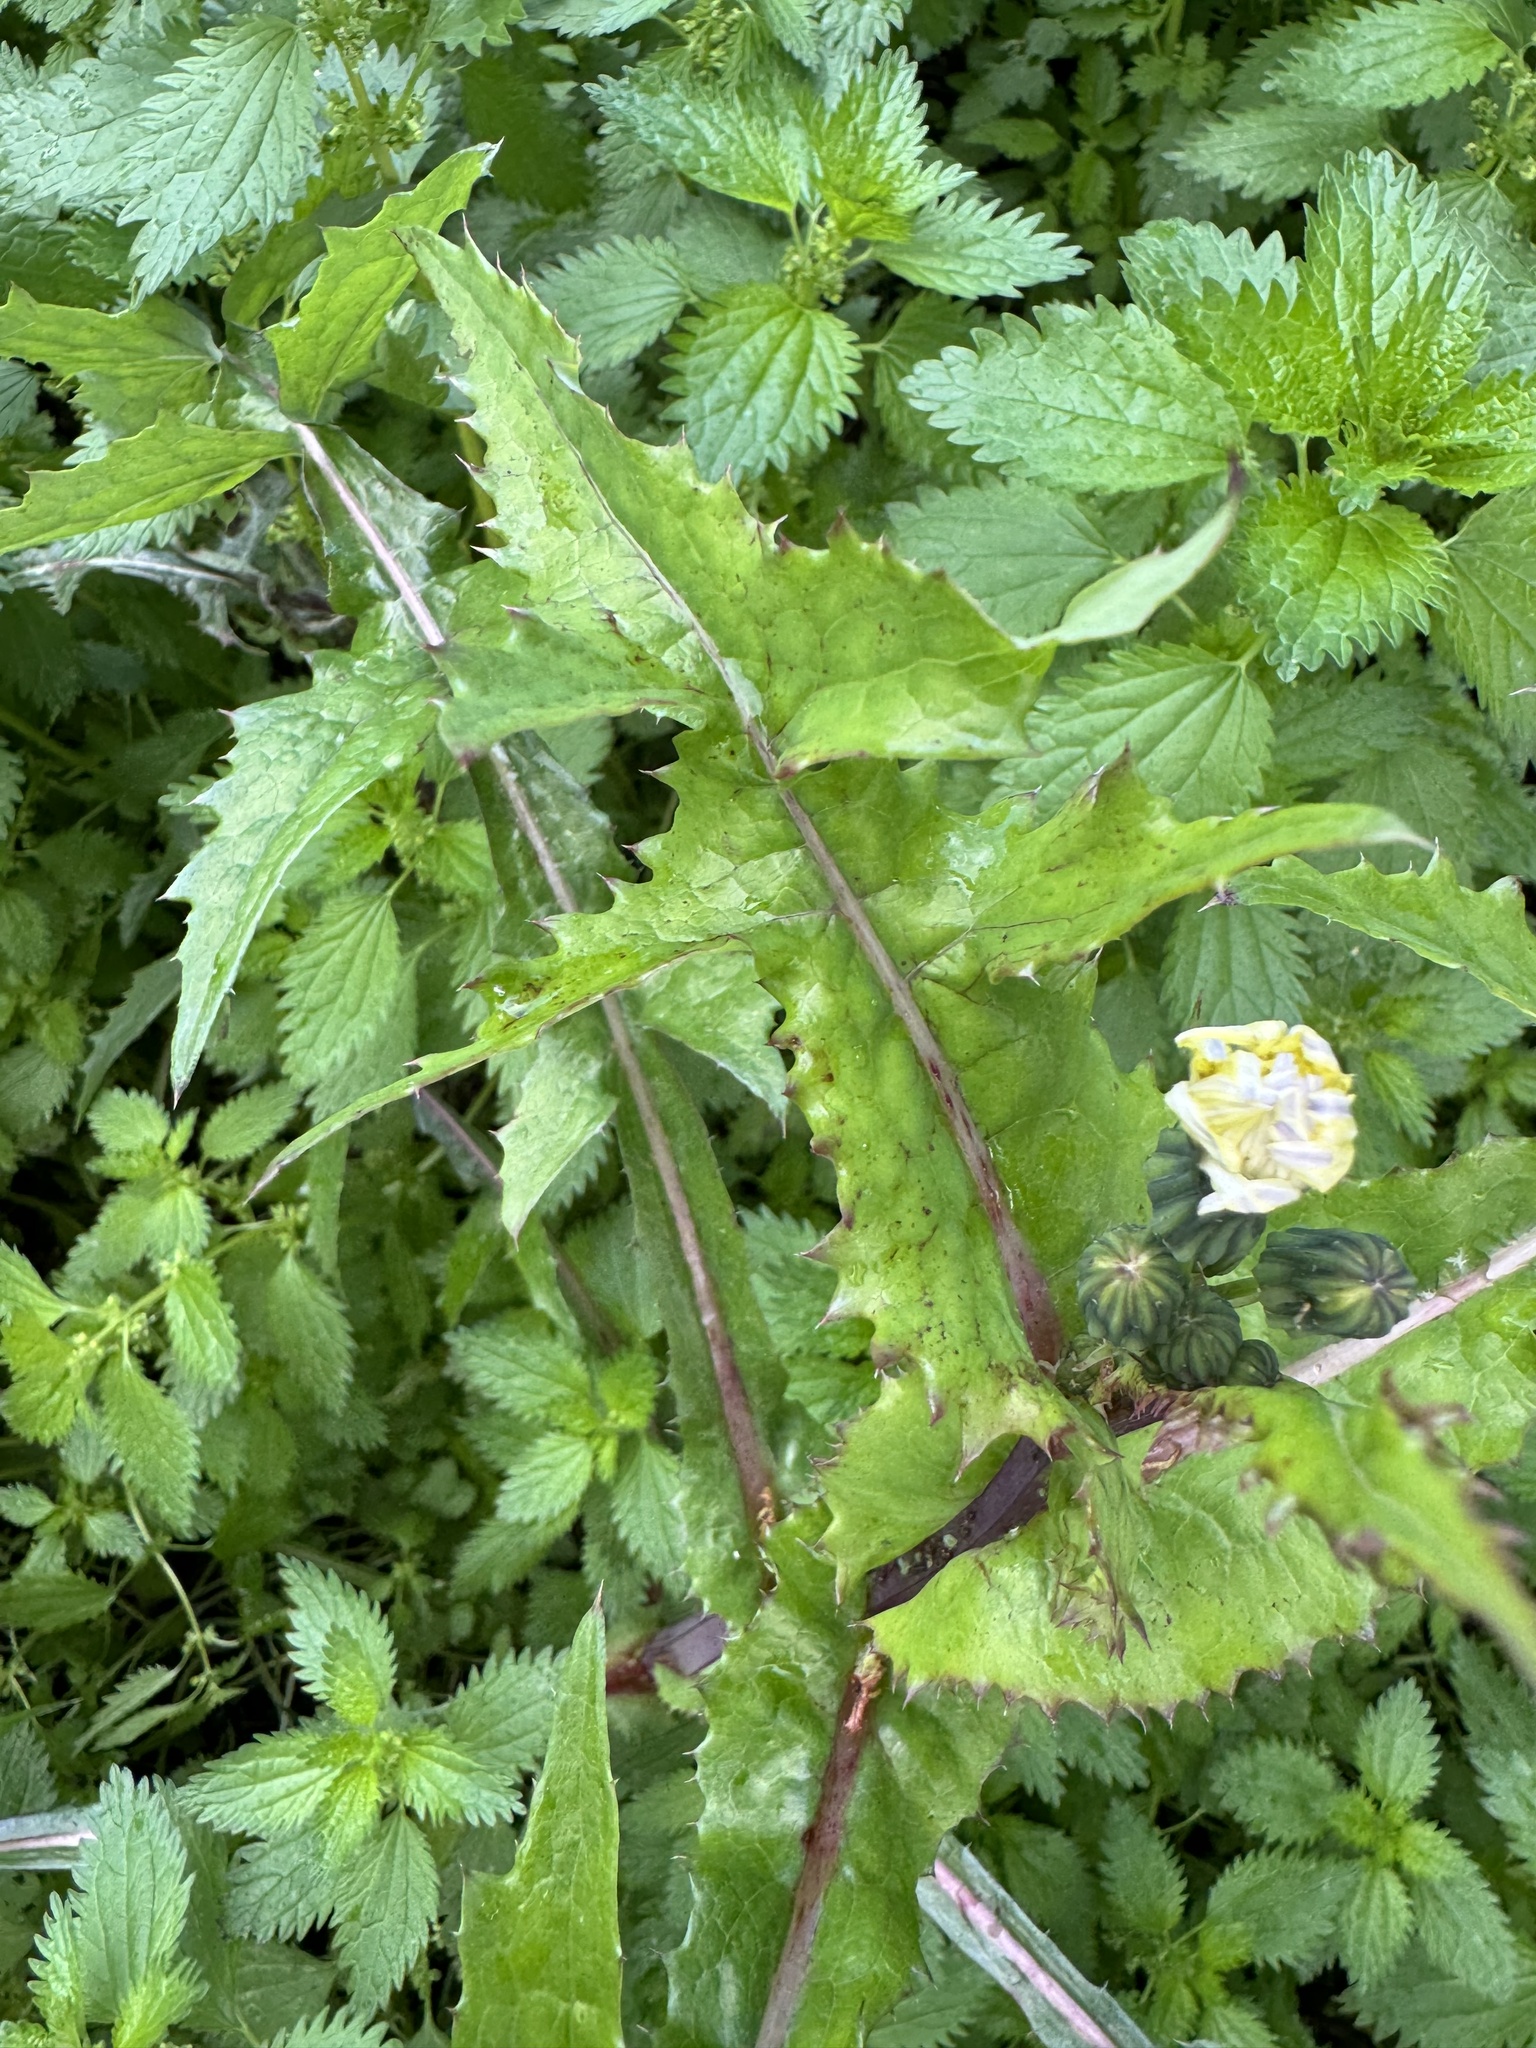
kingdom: Plantae
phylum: Tracheophyta
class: Magnoliopsida
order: Asterales
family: Asteraceae
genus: Sonchus
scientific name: Sonchus oleraceus
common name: Common sowthistle
